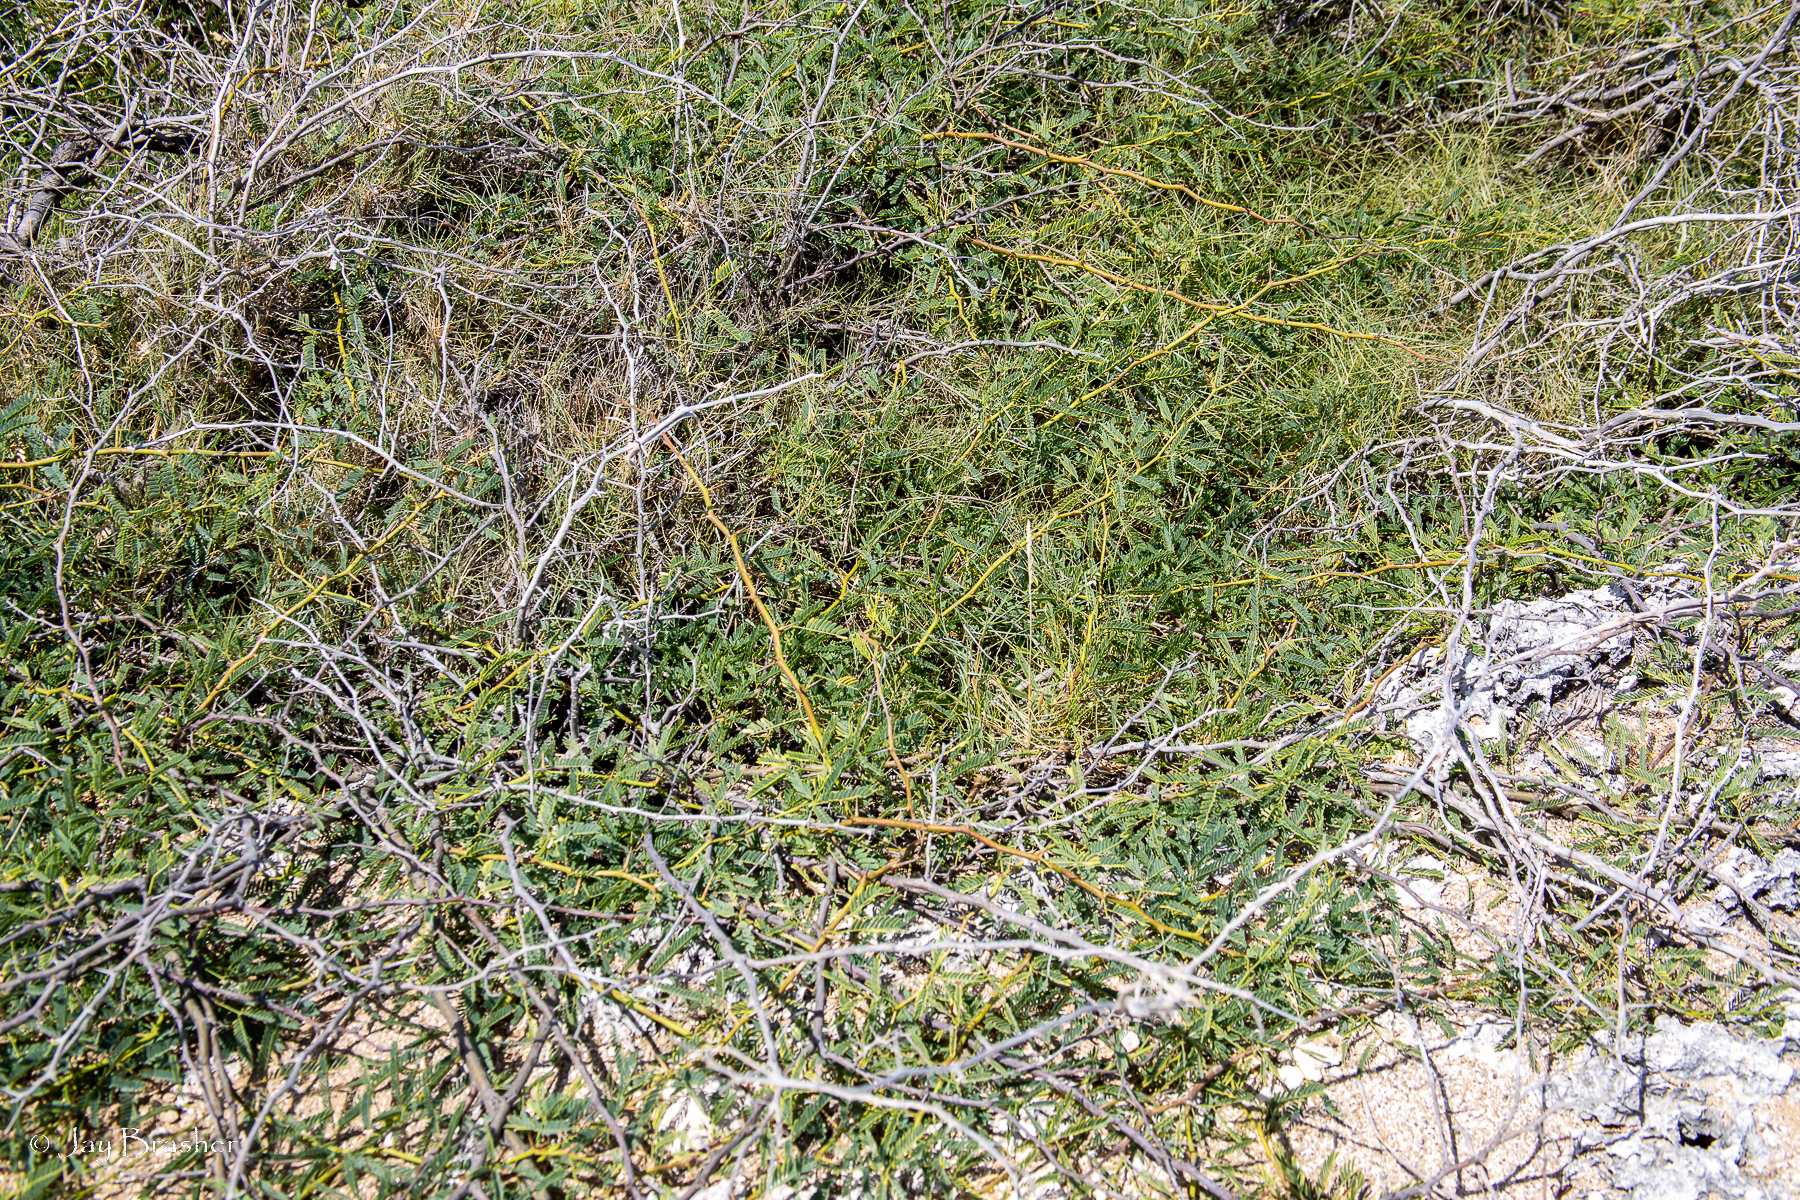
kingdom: Plantae
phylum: Tracheophyta
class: Magnoliopsida
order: Fabales
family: Fabaceae
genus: Prosopis
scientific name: Prosopis juliflora
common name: Mesquite
